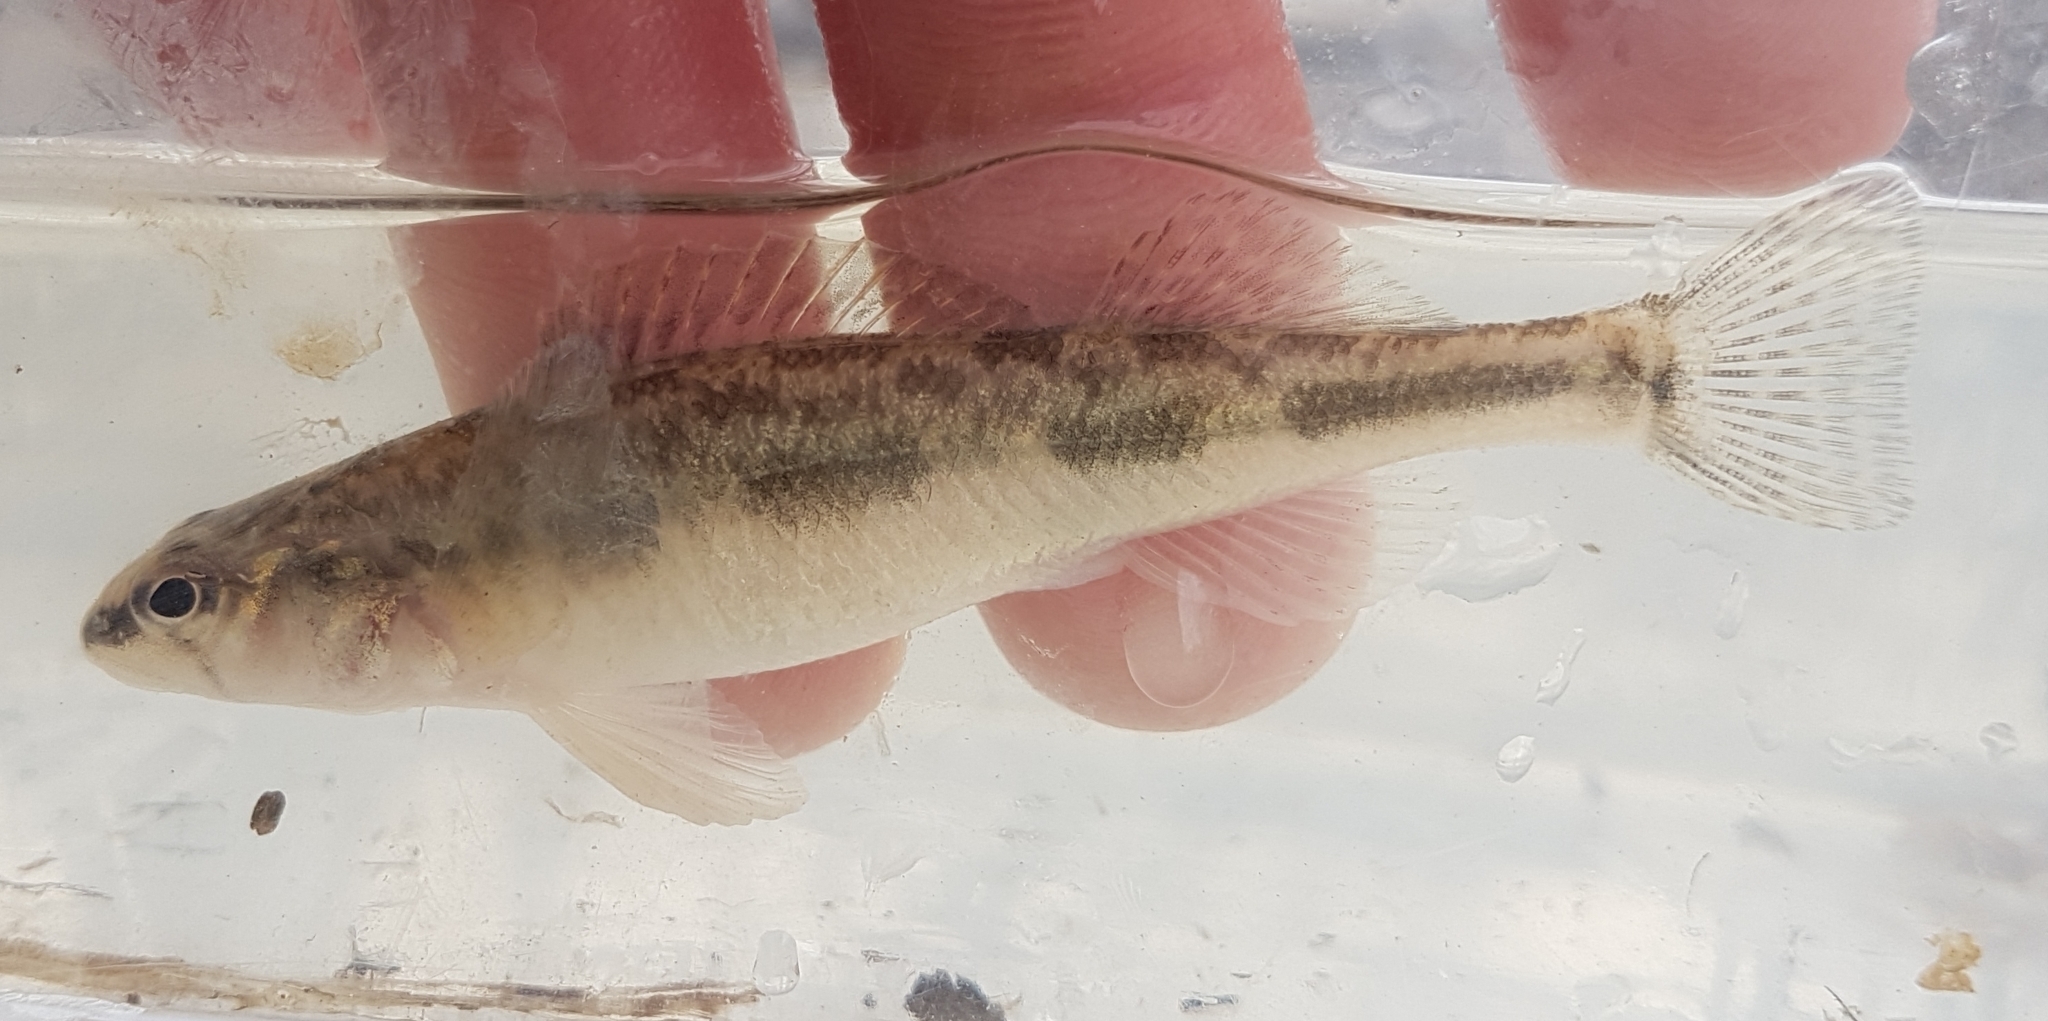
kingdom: Animalia
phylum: Chordata
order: Perciformes
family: Percidae
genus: Percina
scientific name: Percina maculata
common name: Blackside darter
